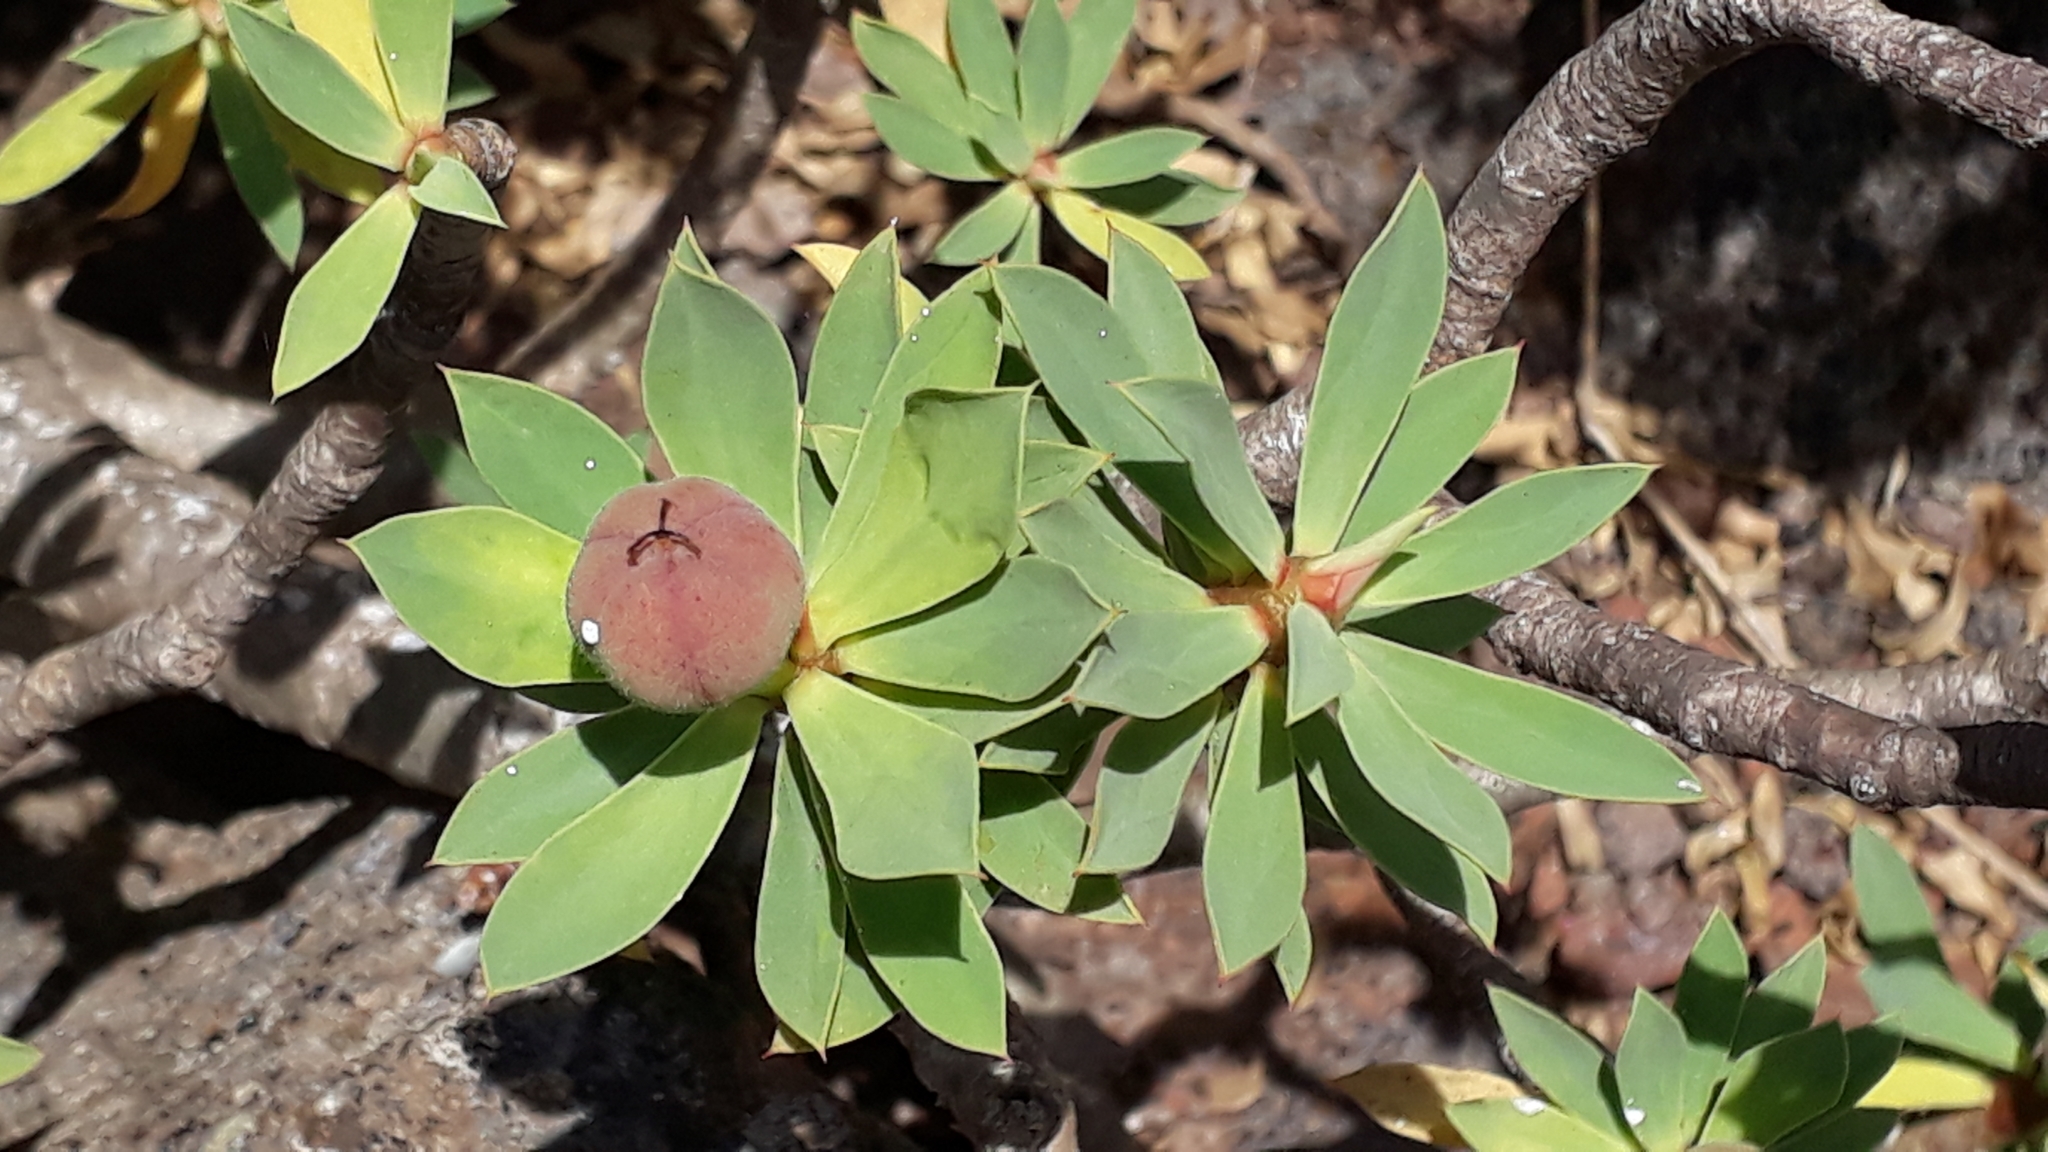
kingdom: Plantae
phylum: Tracheophyta
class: Magnoliopsida
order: Malpighiales
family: Euphorbiaceae
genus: Euphorbia
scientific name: Euphorbia balsamifera
